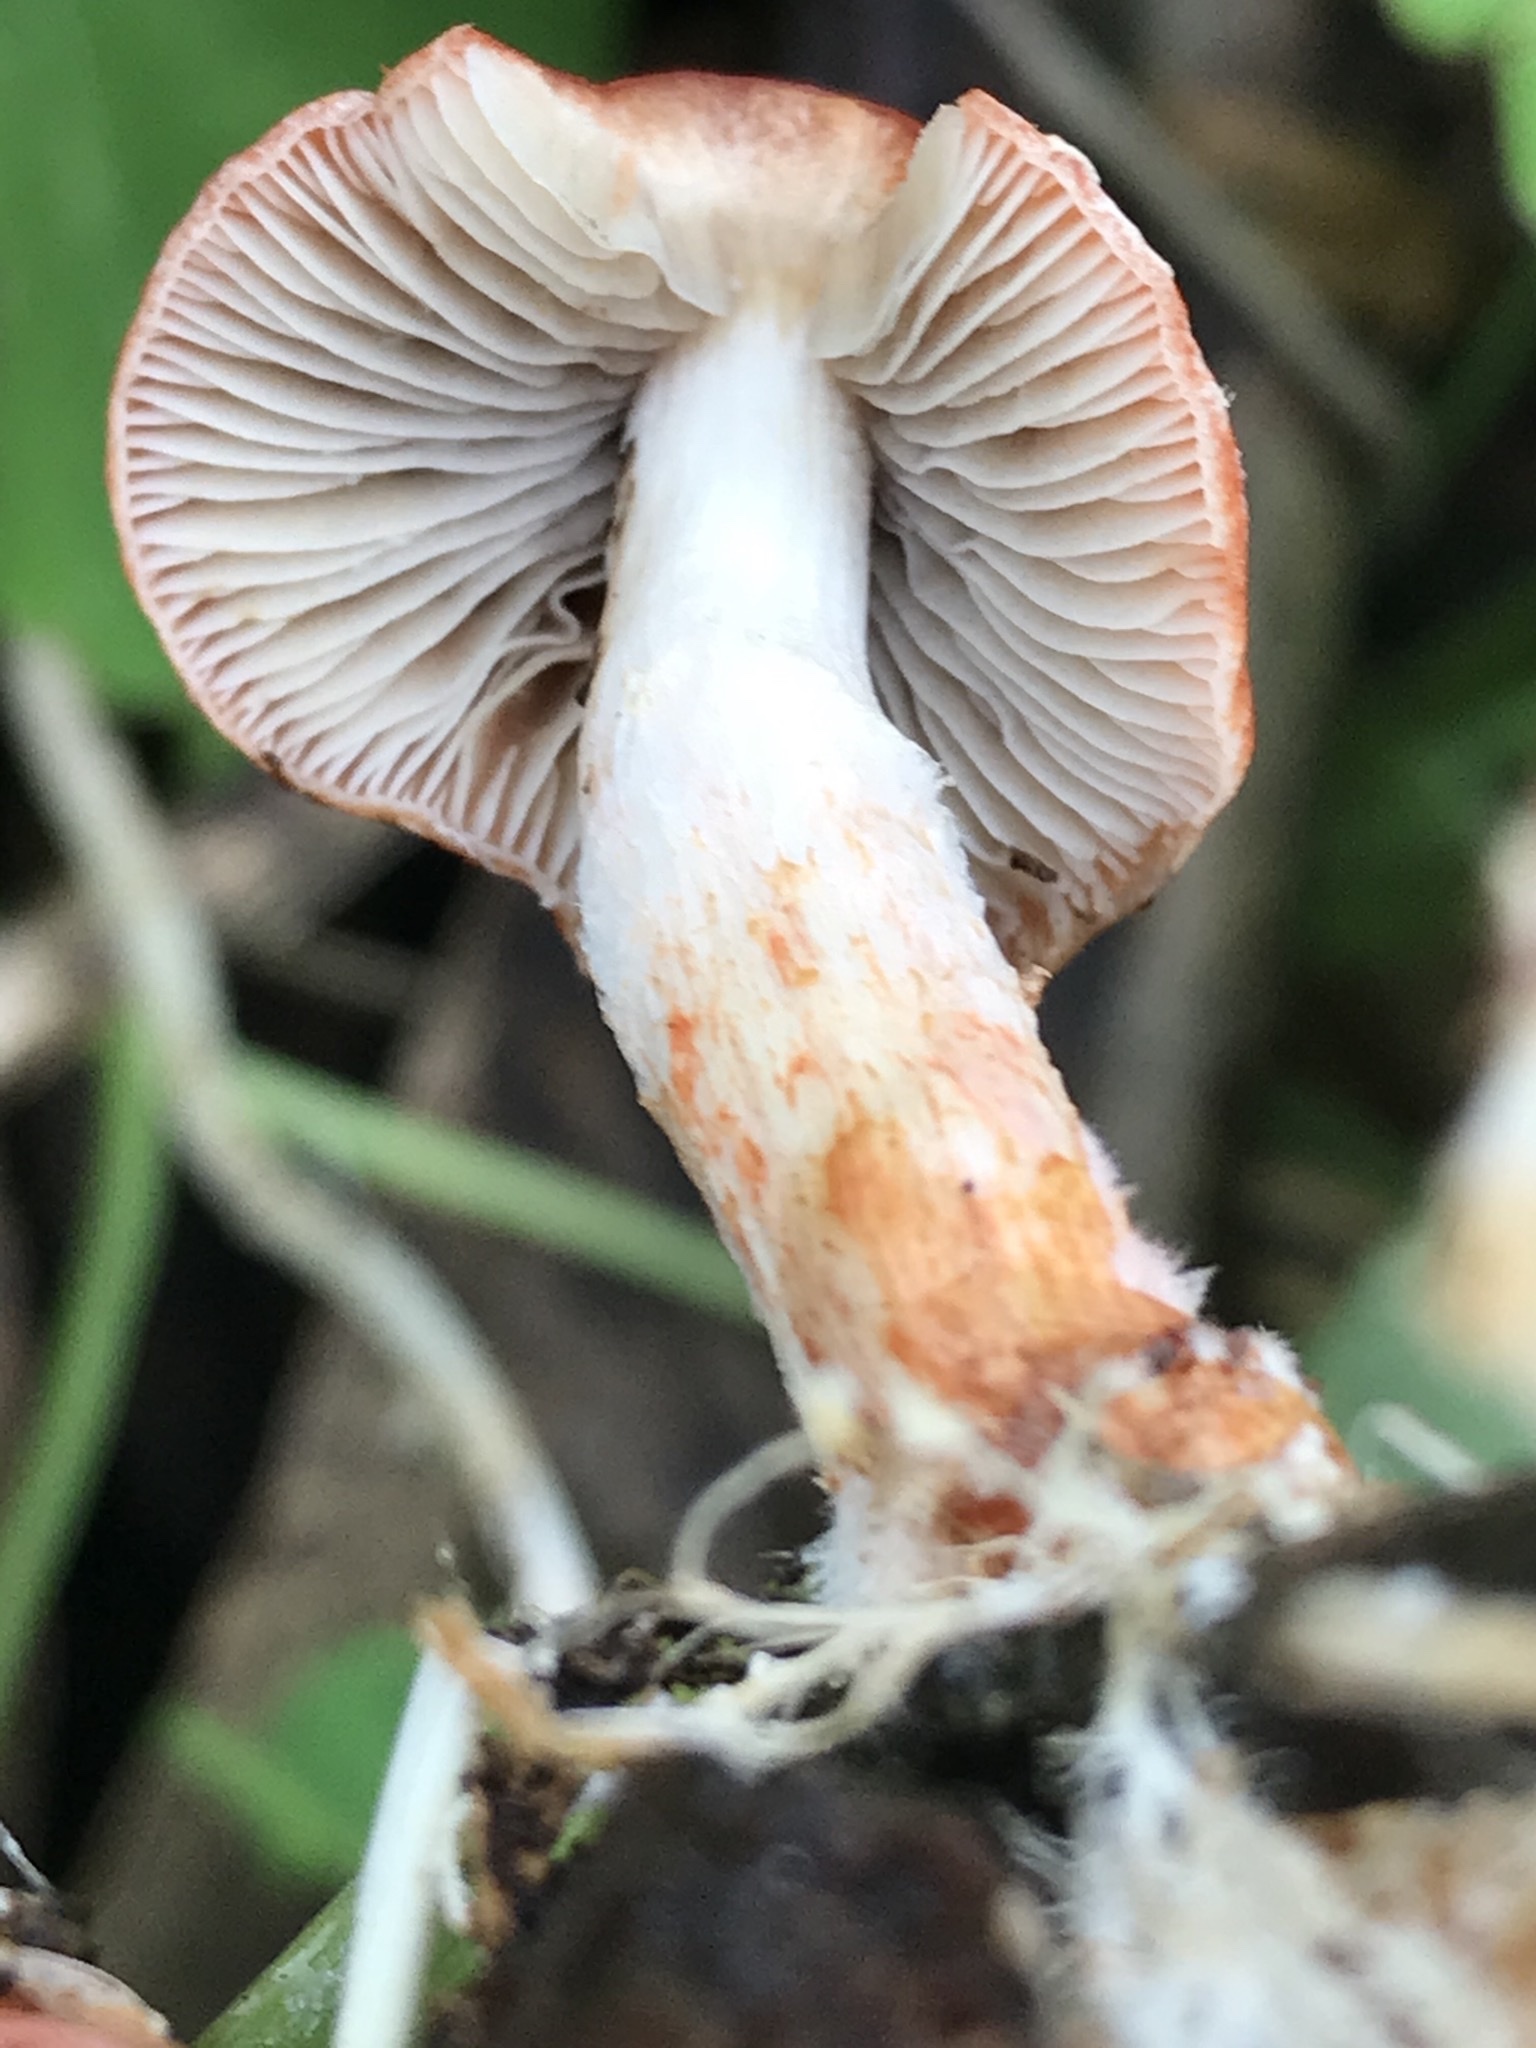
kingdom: Fungi
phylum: Basidiomycota
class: Agaricomycetes
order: Agaricales
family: Strophariaceae
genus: Leratiomyces
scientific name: Leratiomyces ceres
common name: Redlead roundhead
